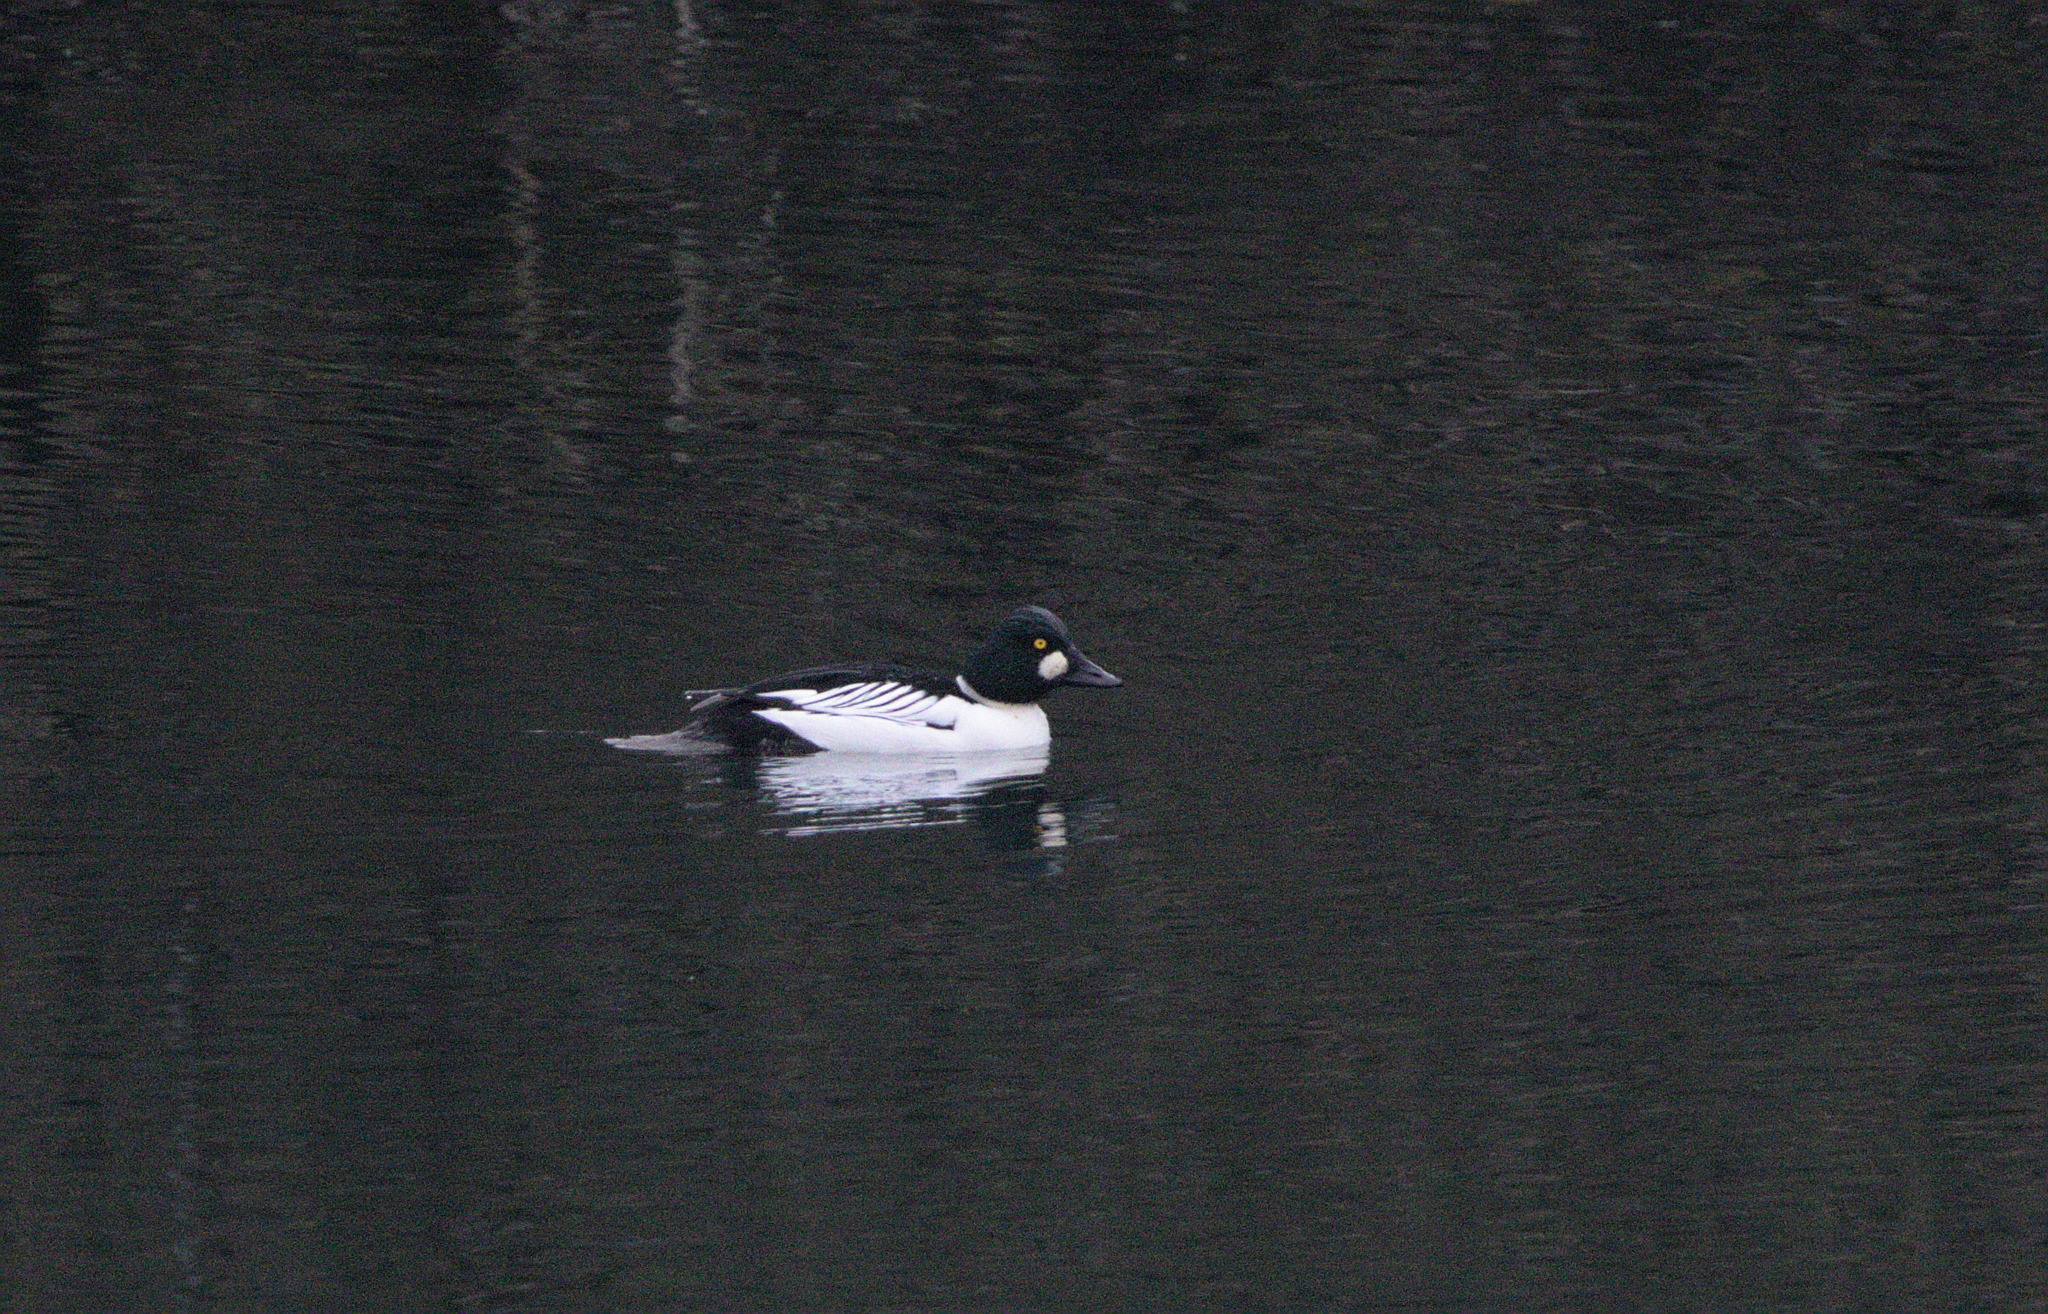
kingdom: Animalia
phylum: Chordata
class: Aves
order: Anseriformes
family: Anatidae
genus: Bucephala
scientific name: Bucephala clangula
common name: Common goldeneye
